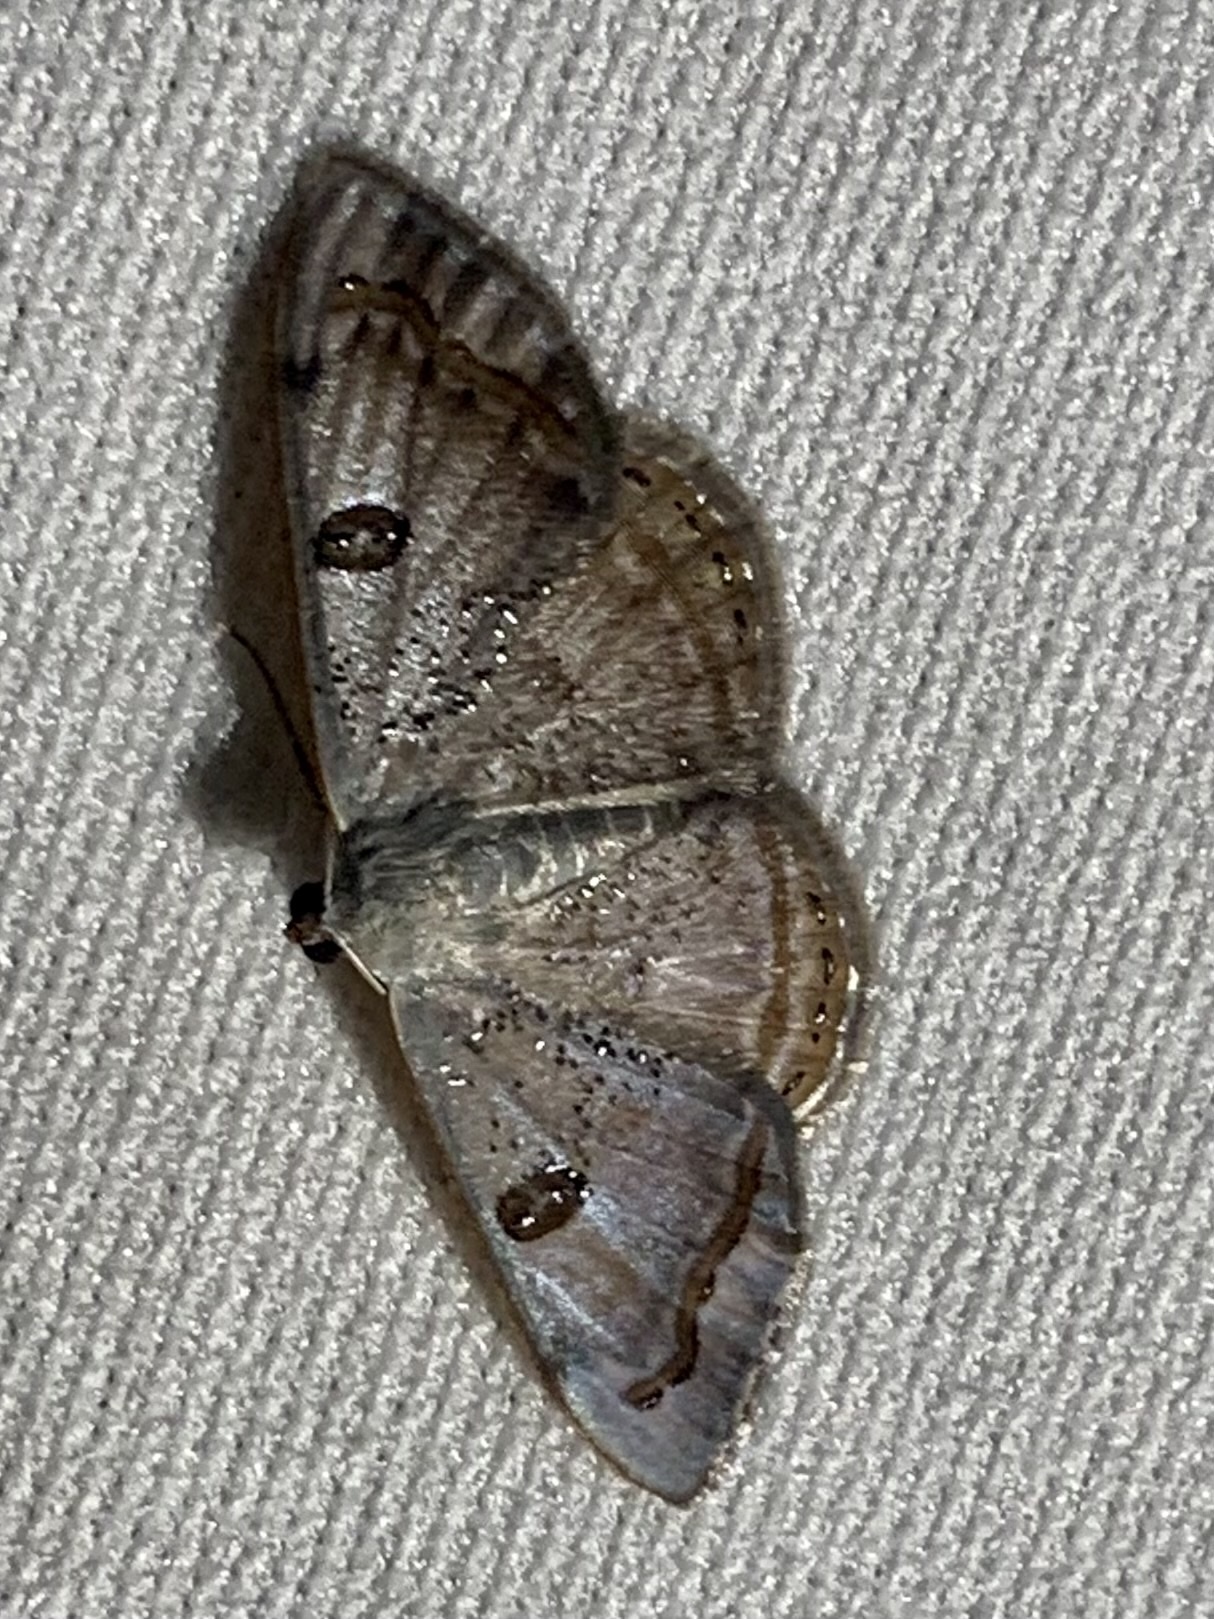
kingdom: Animalia
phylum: Arthropoda
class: Insecta
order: Lepidoptera
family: Geometridae
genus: Argyrotome
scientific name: Argyrotome melae
